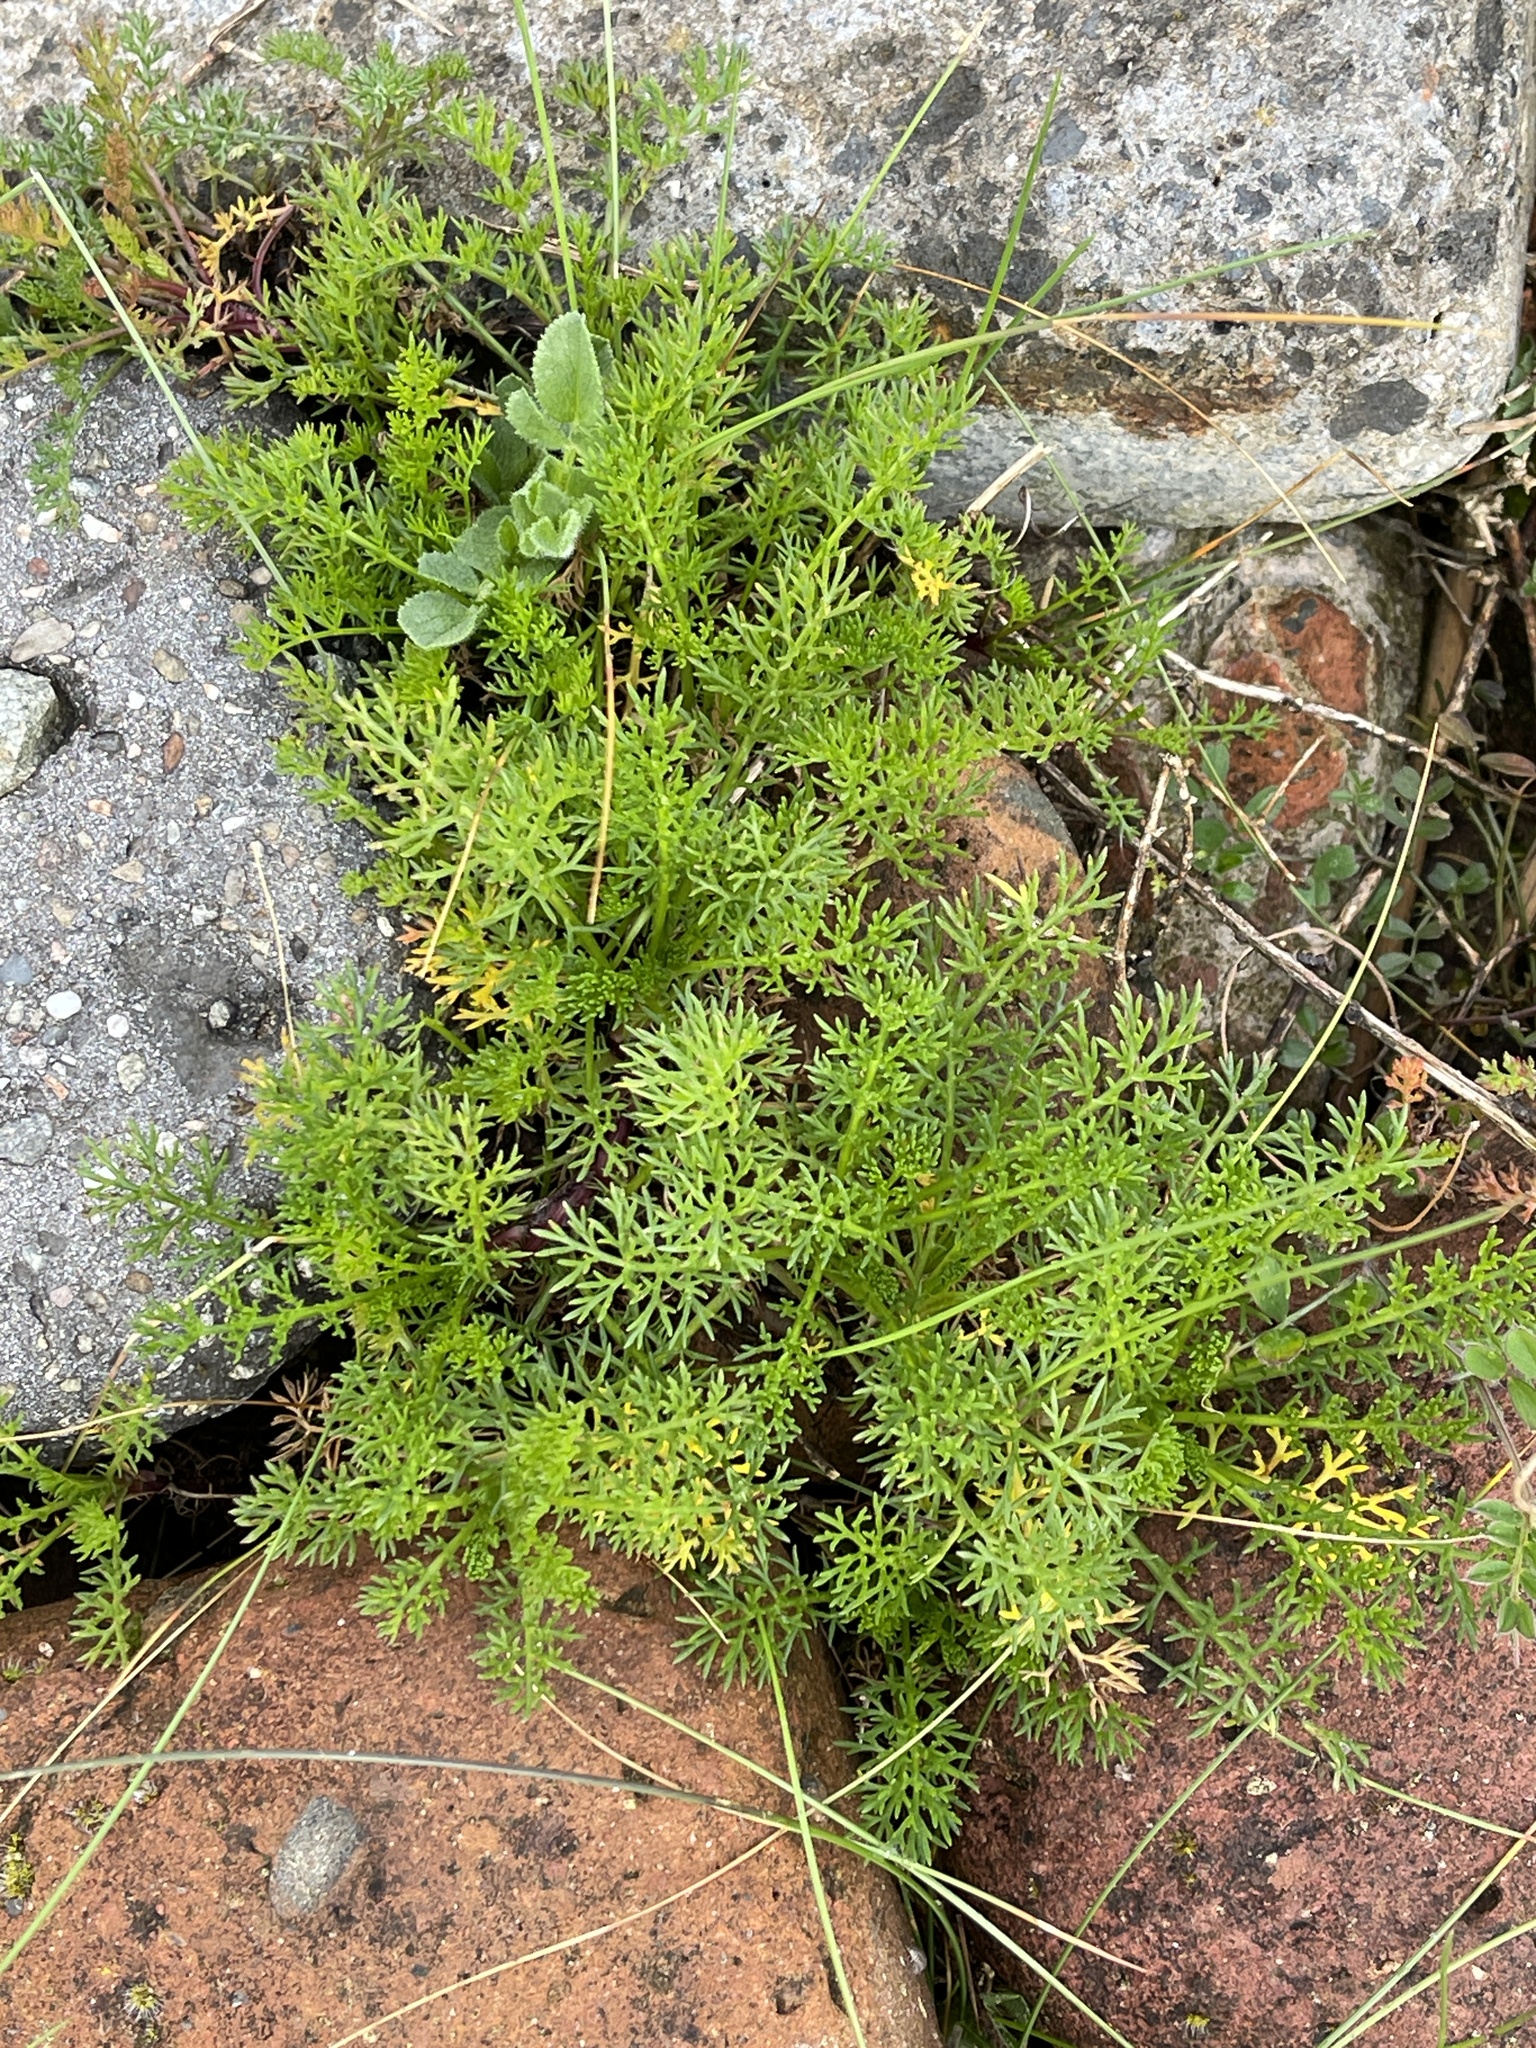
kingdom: Plantae
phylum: Tracheophyta
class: Magnoliopsida
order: Asterales
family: Asteraceae
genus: Tripleurospermum
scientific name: Tripleurospermum maritimum
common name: Sea mayweed
